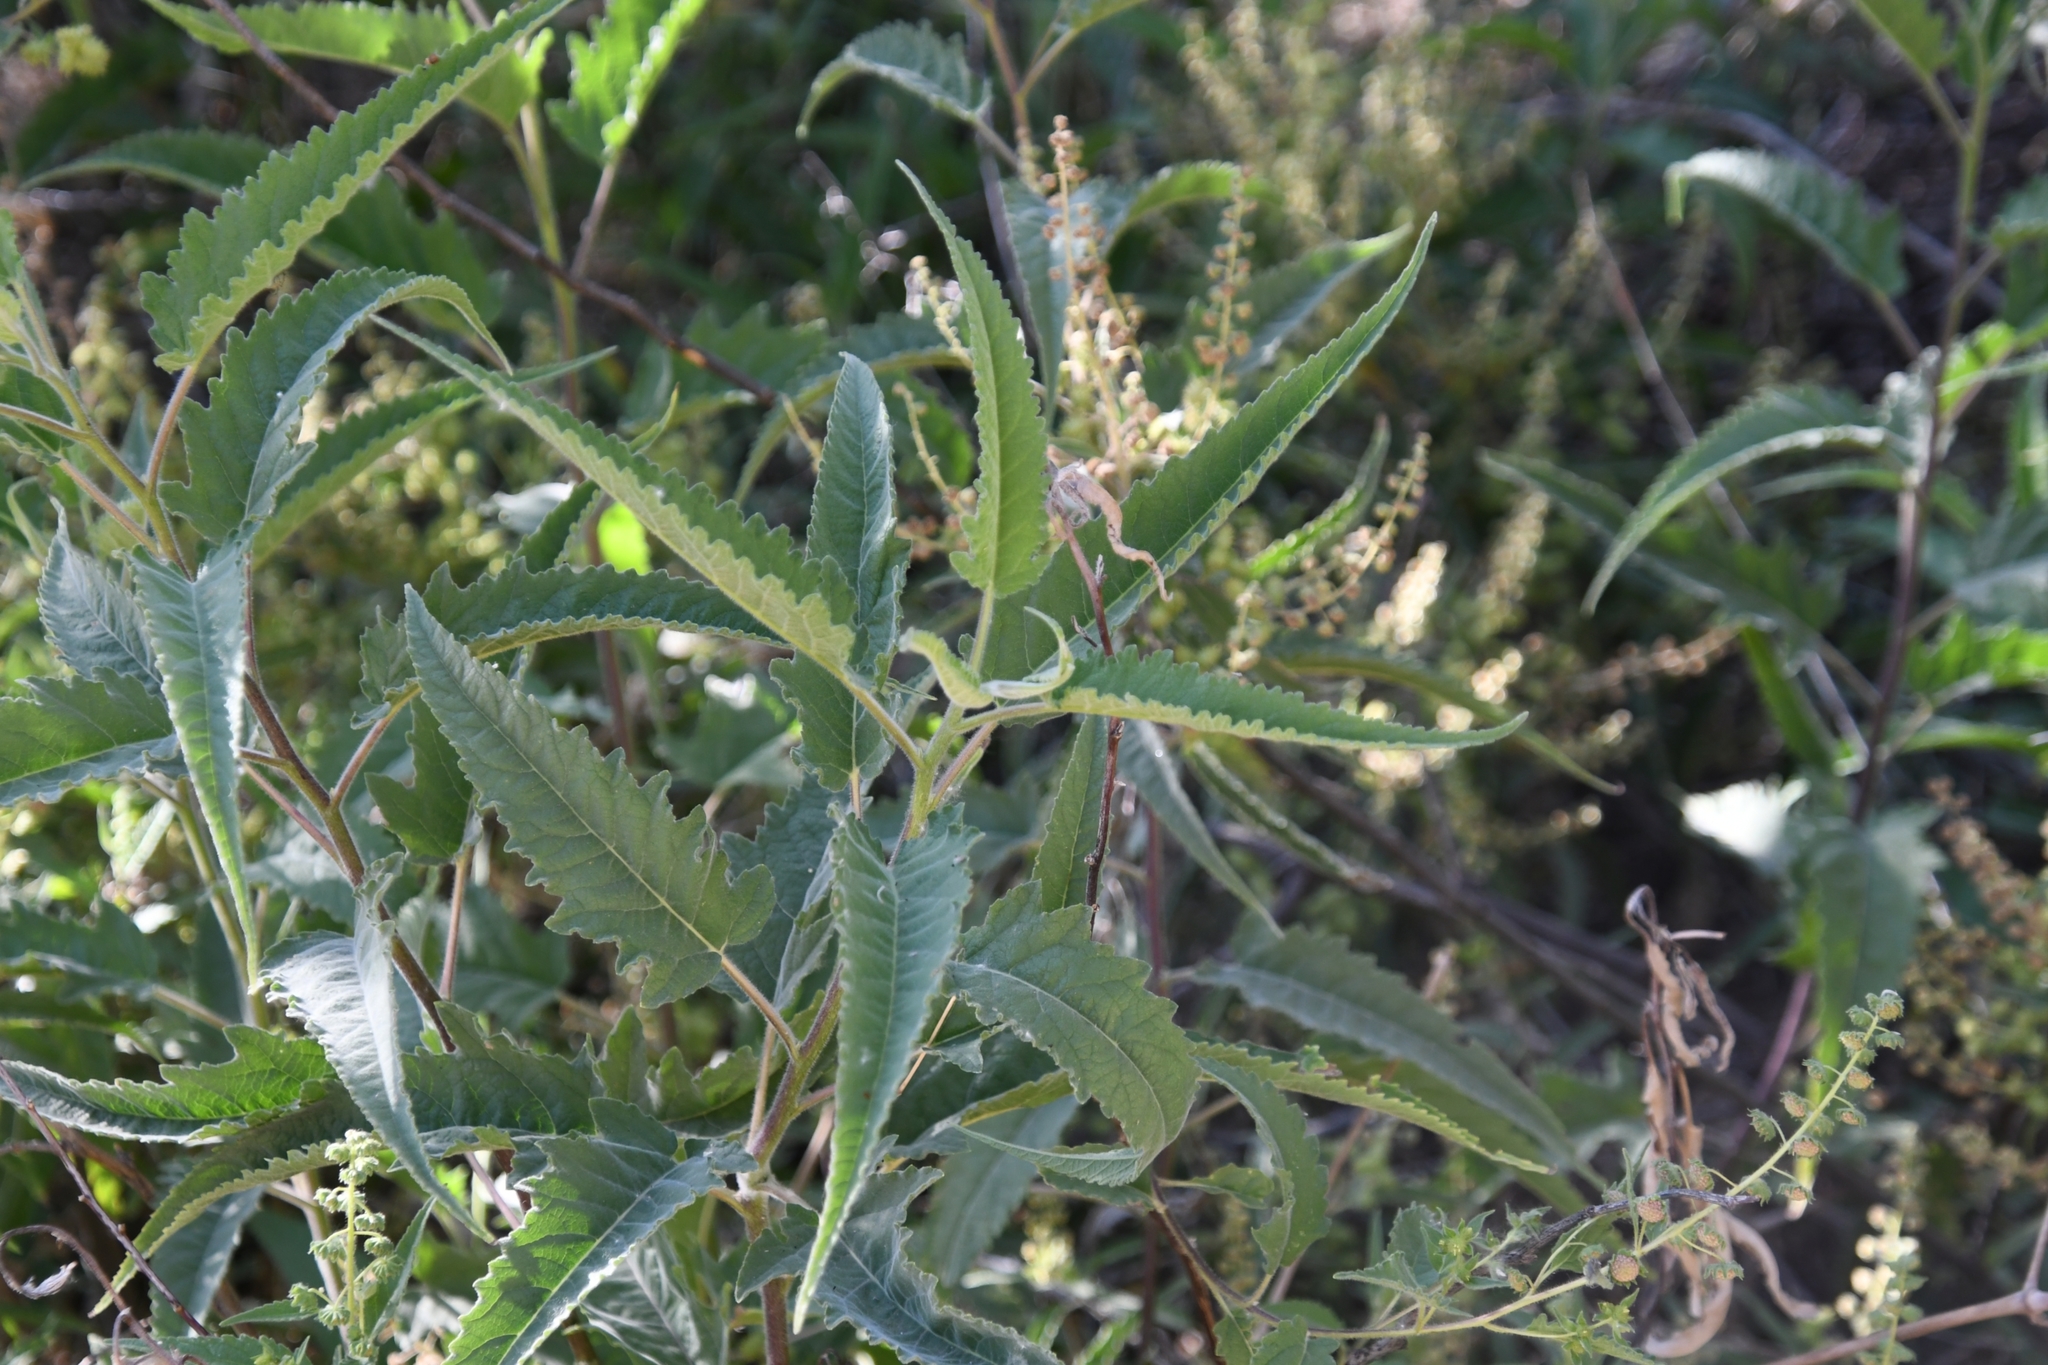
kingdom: Plantae
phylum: Tracheophyta
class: Magnoliopsida
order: Asterales
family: Asteraceae
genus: Ambrosia
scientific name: Ambrosia ambrosioides
